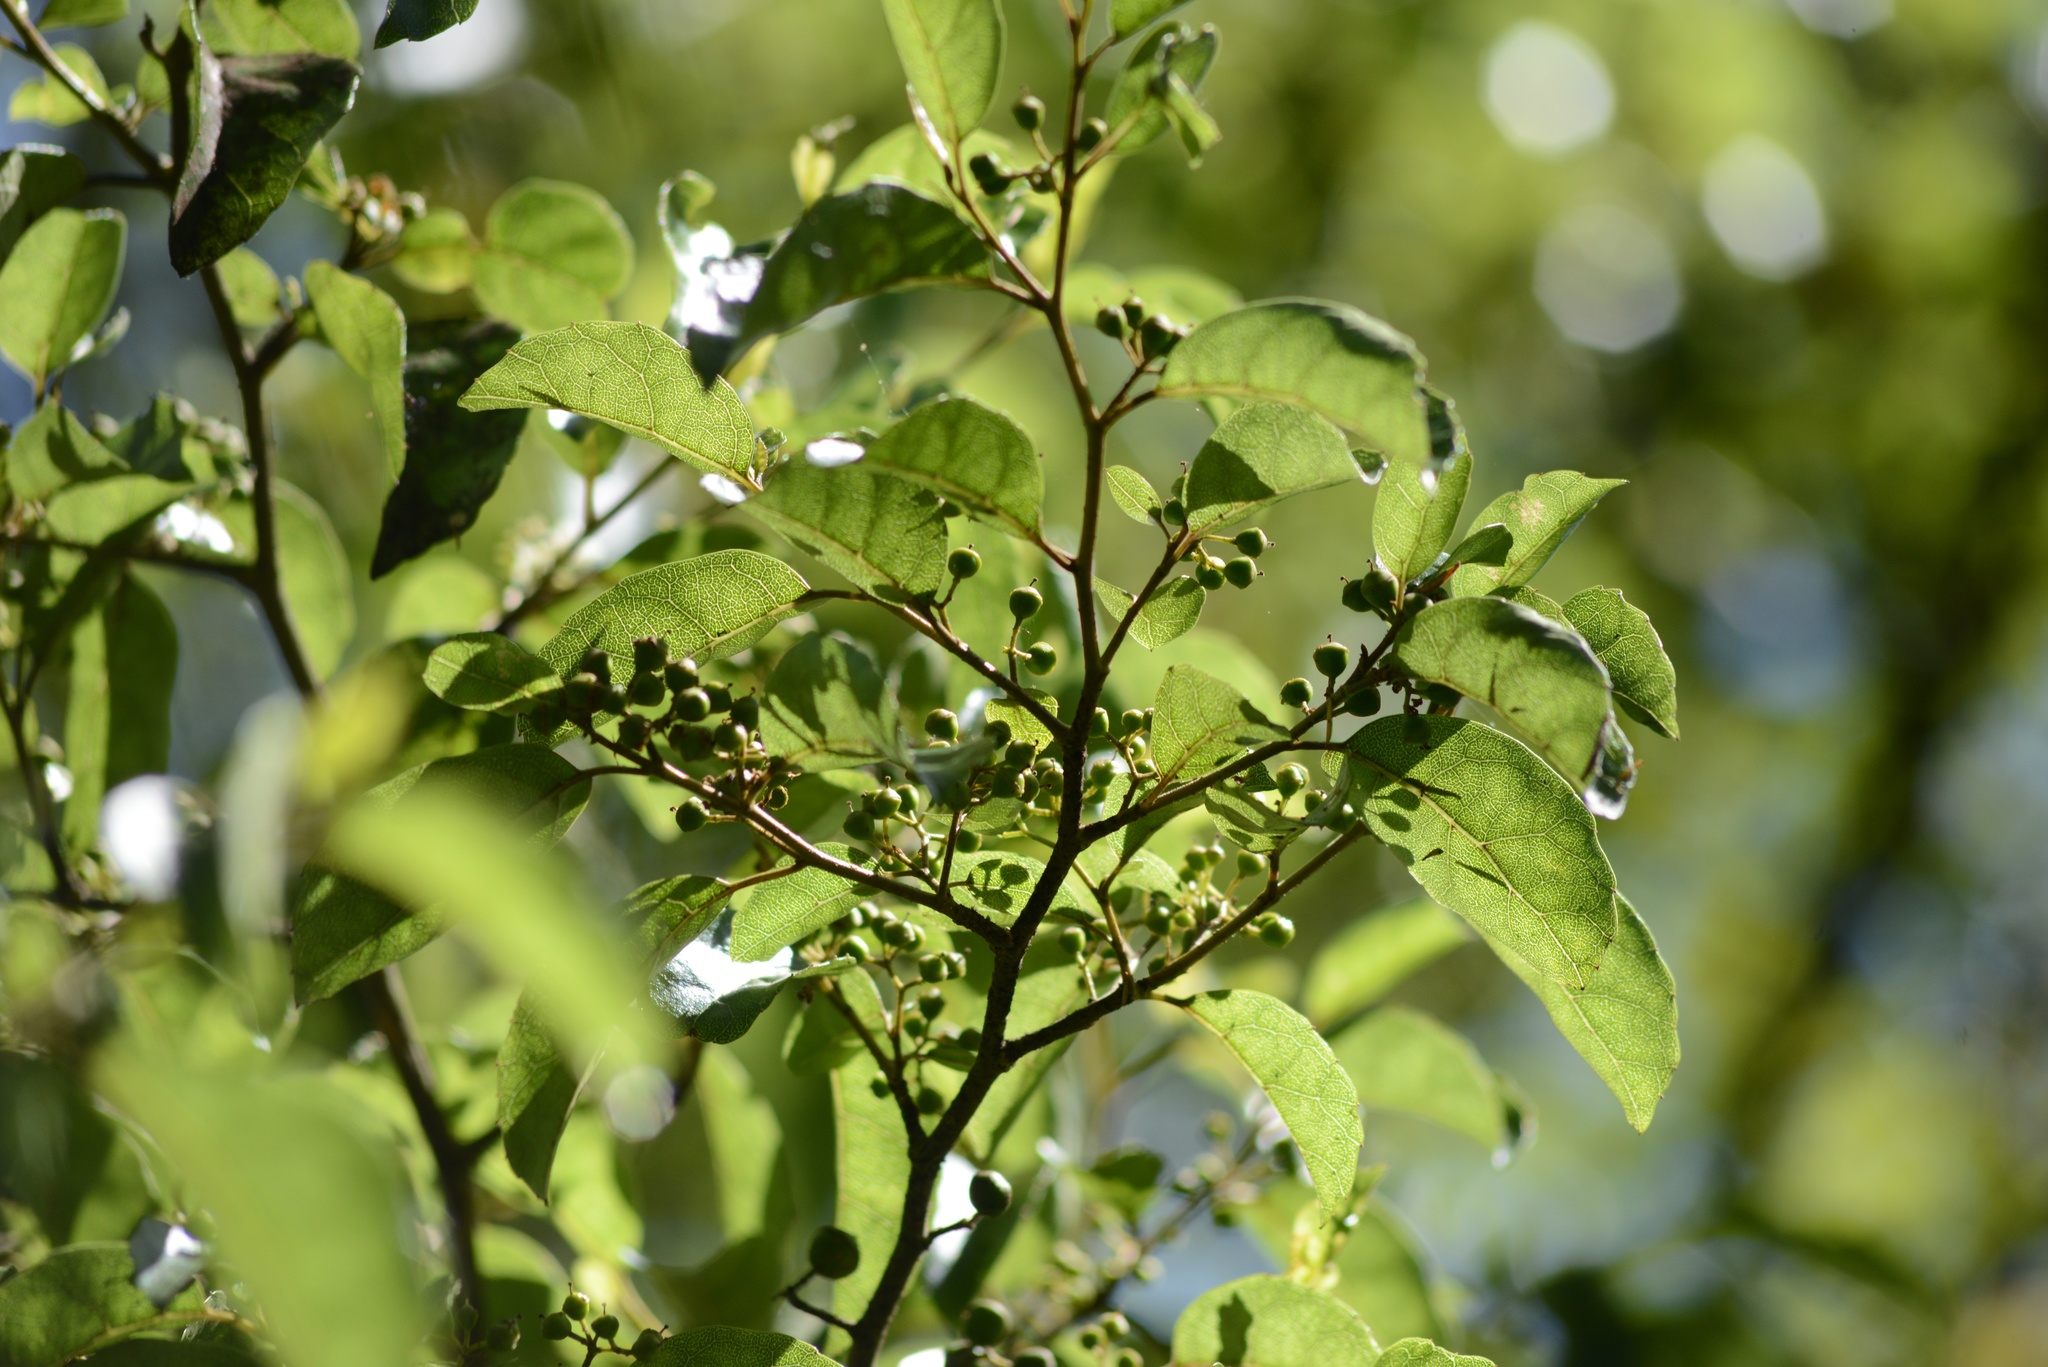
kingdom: Plantae
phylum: Tracheophyta
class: Magnoliopsida
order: Asterales
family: Rousseaceae
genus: Carpodetus
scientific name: Carpodetus serratus
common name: White mapau
